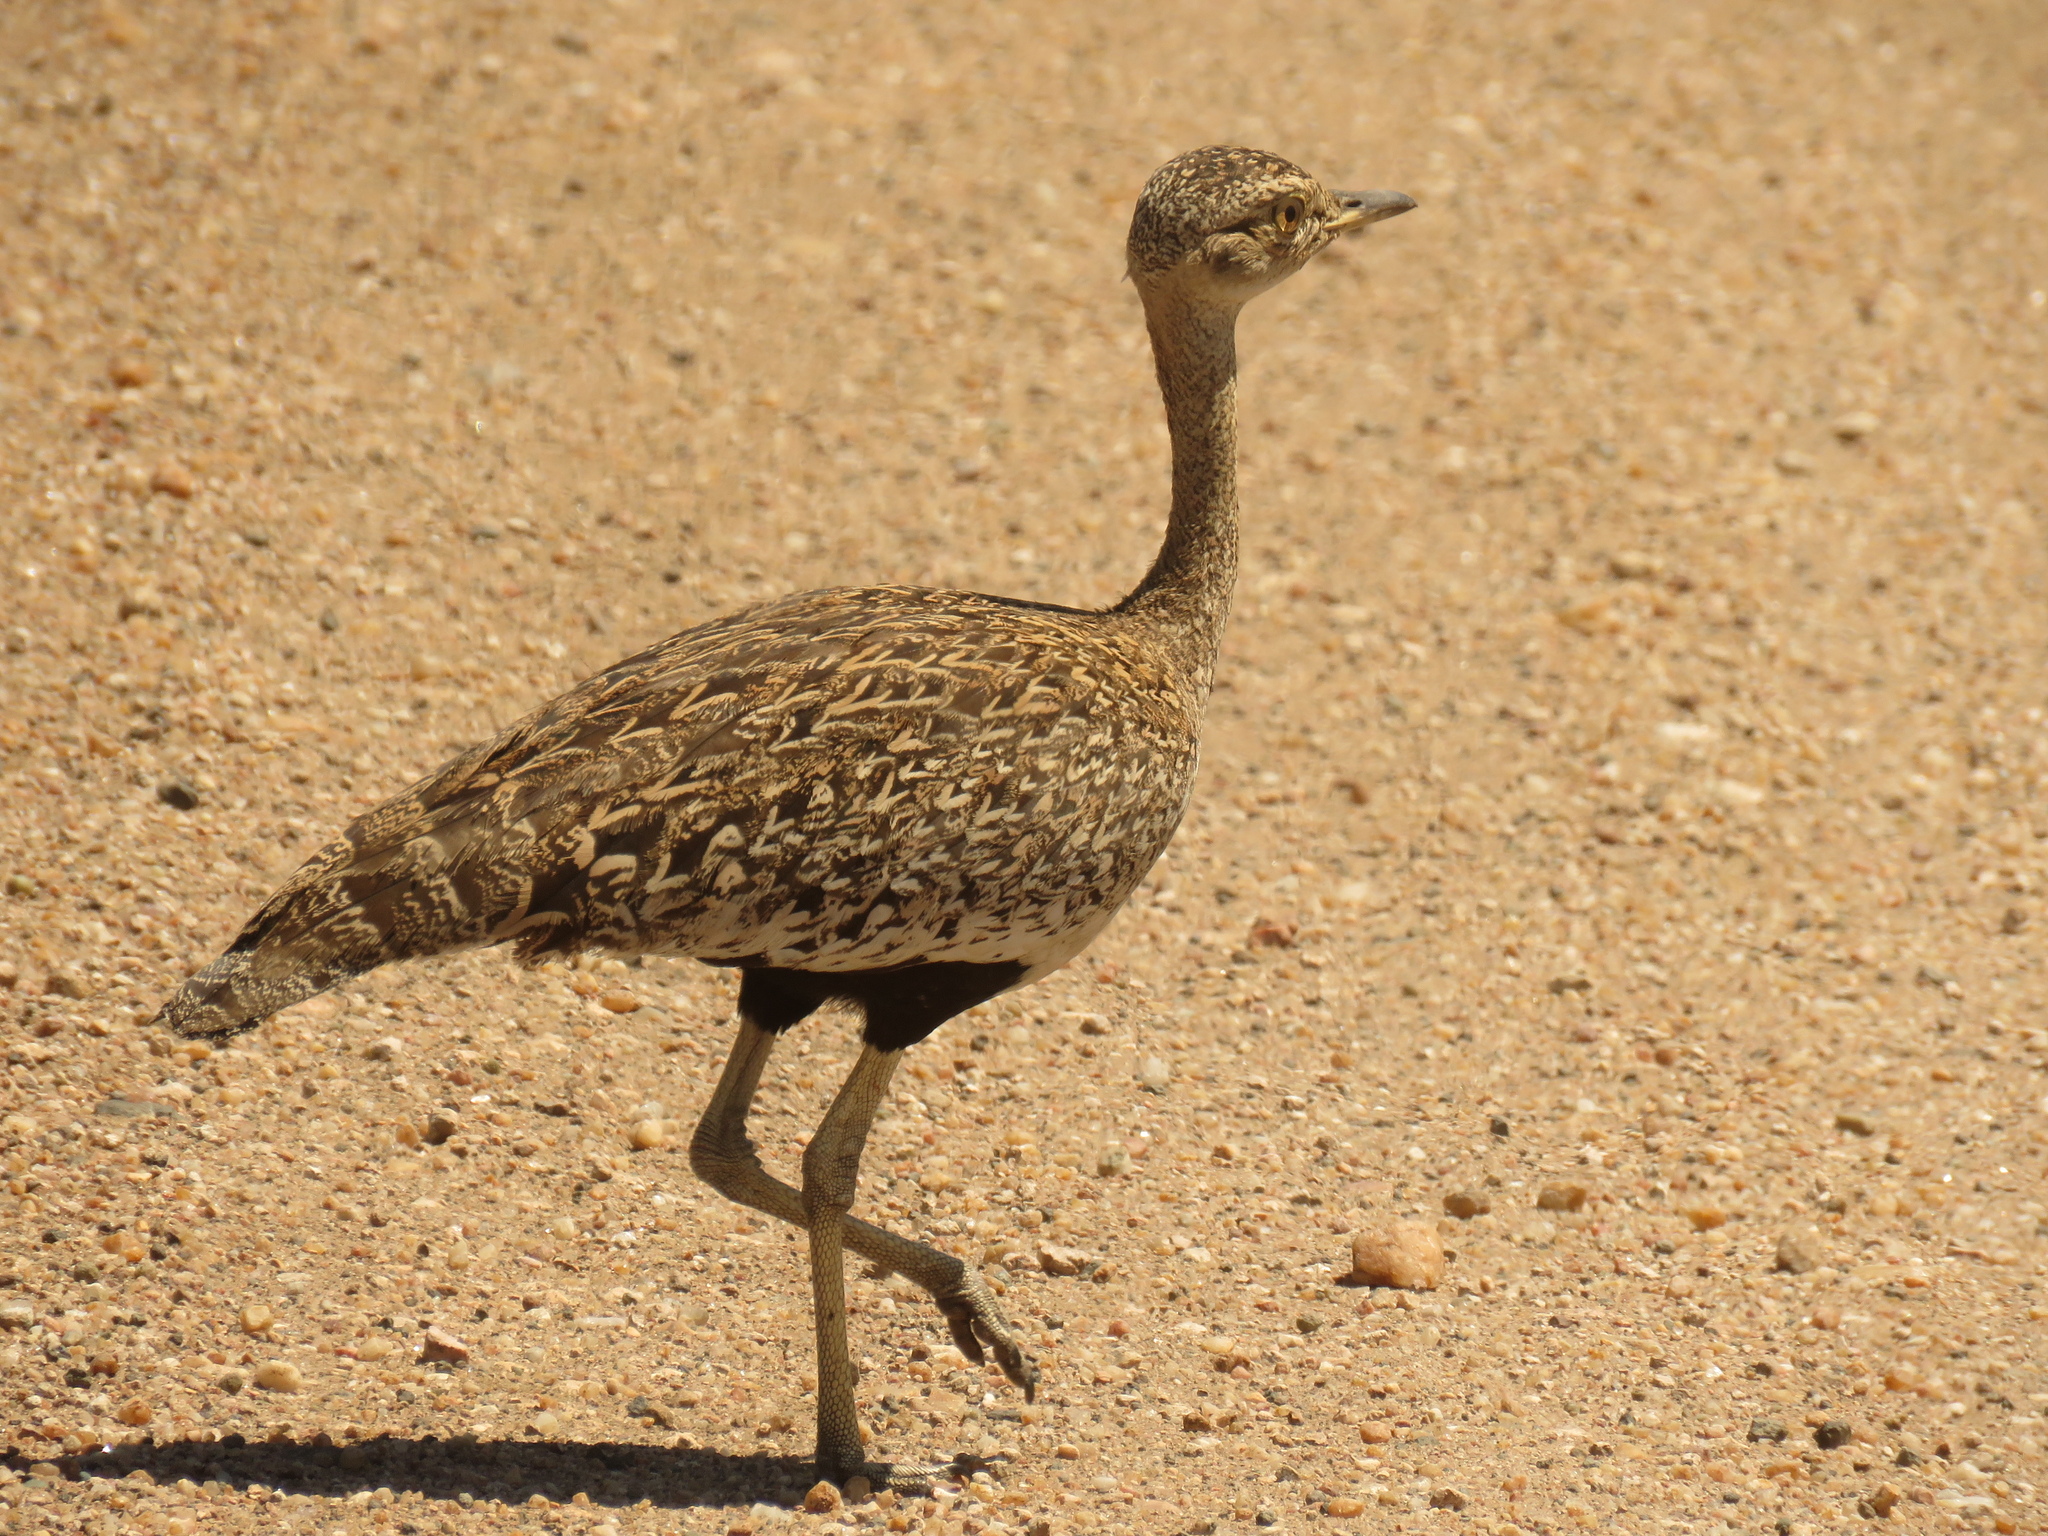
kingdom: Animalia
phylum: Chordata
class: Aves
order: Otidiformes
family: Otididae
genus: Lophotis
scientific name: Lophotis ruficrista
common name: Red-crested korhaan
